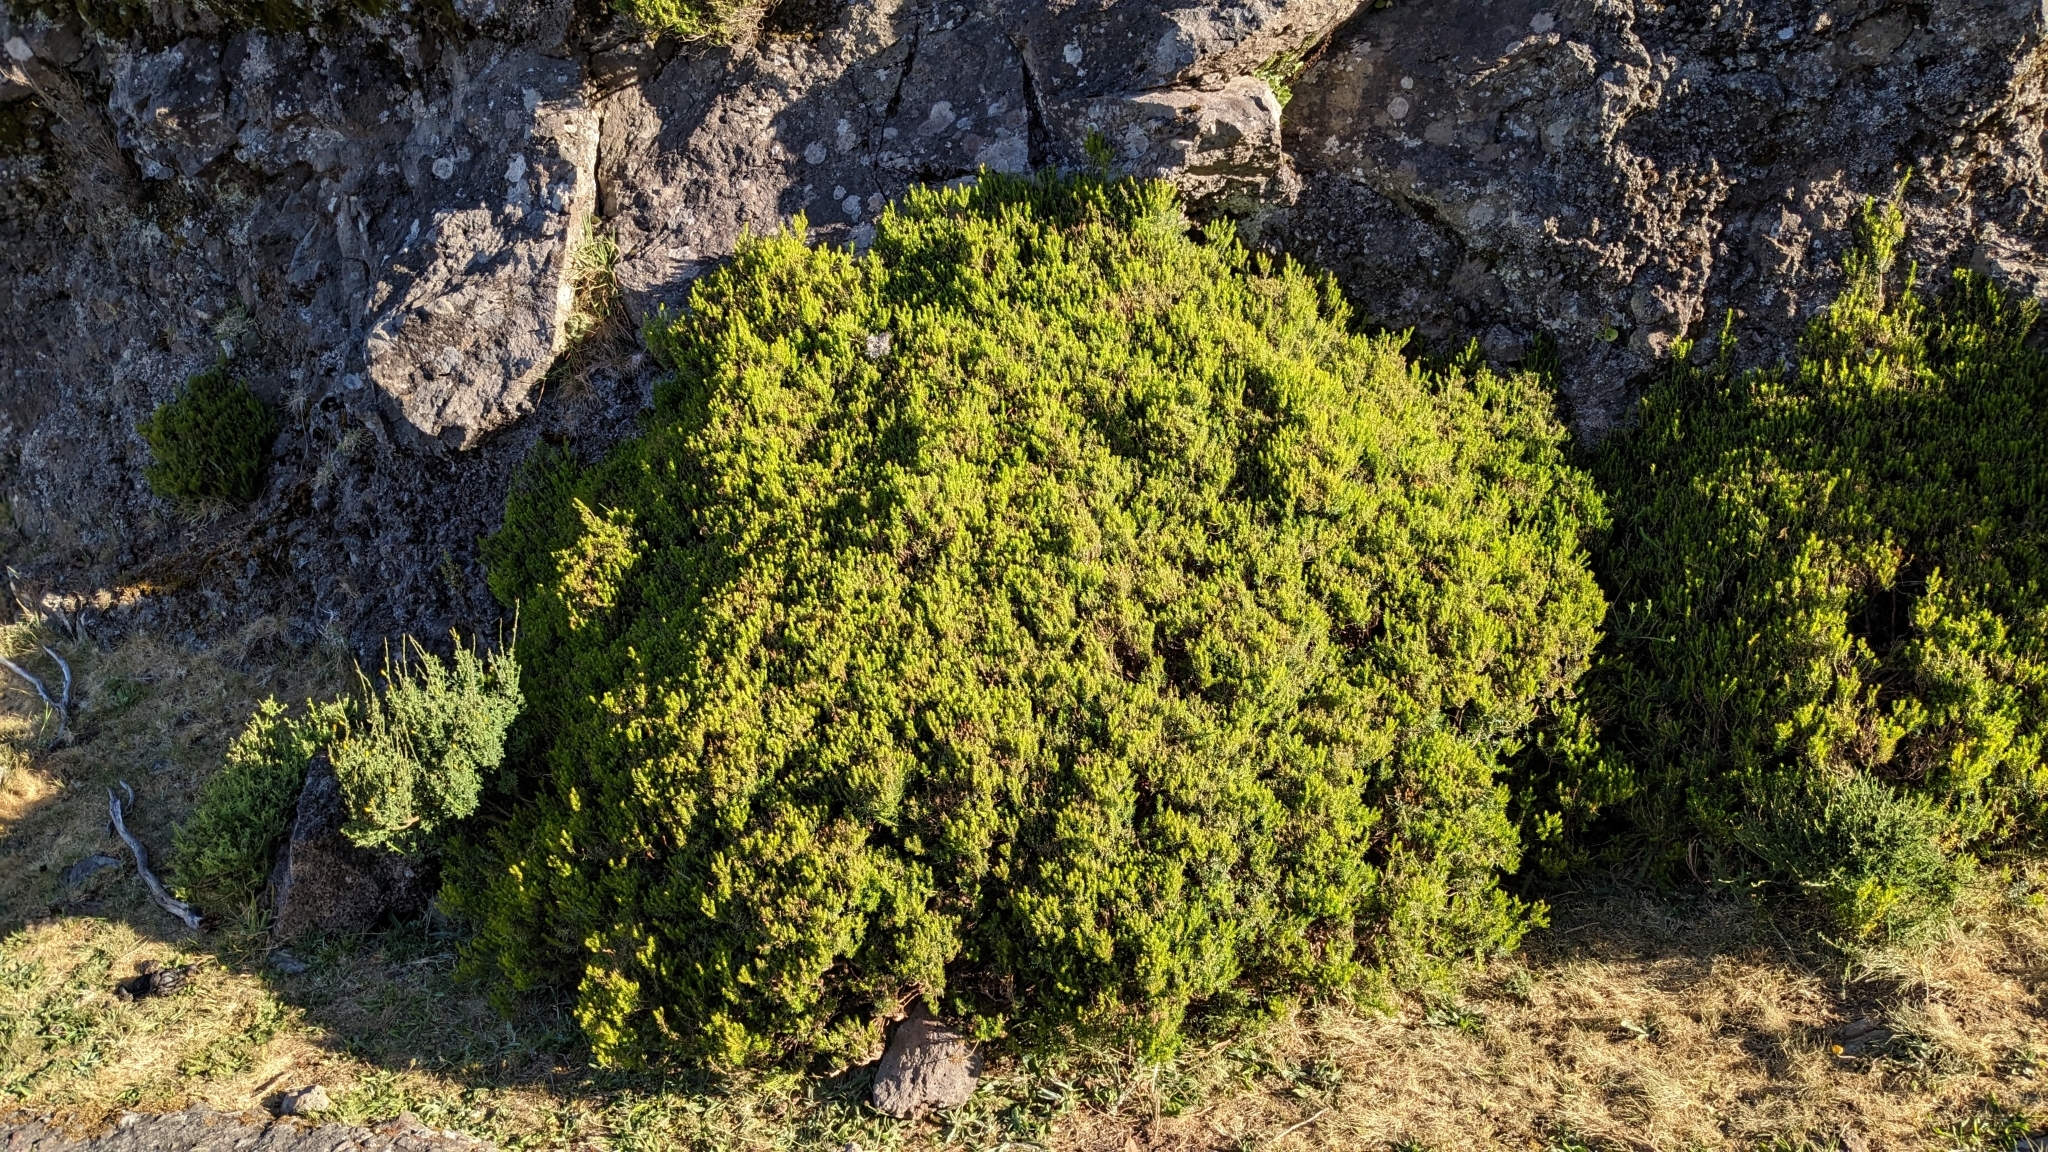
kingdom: Plantae
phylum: Tracheophyta
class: Magnoliopsida
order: Ericales
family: Ericaceae
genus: Erica
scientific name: Erica platycodon
